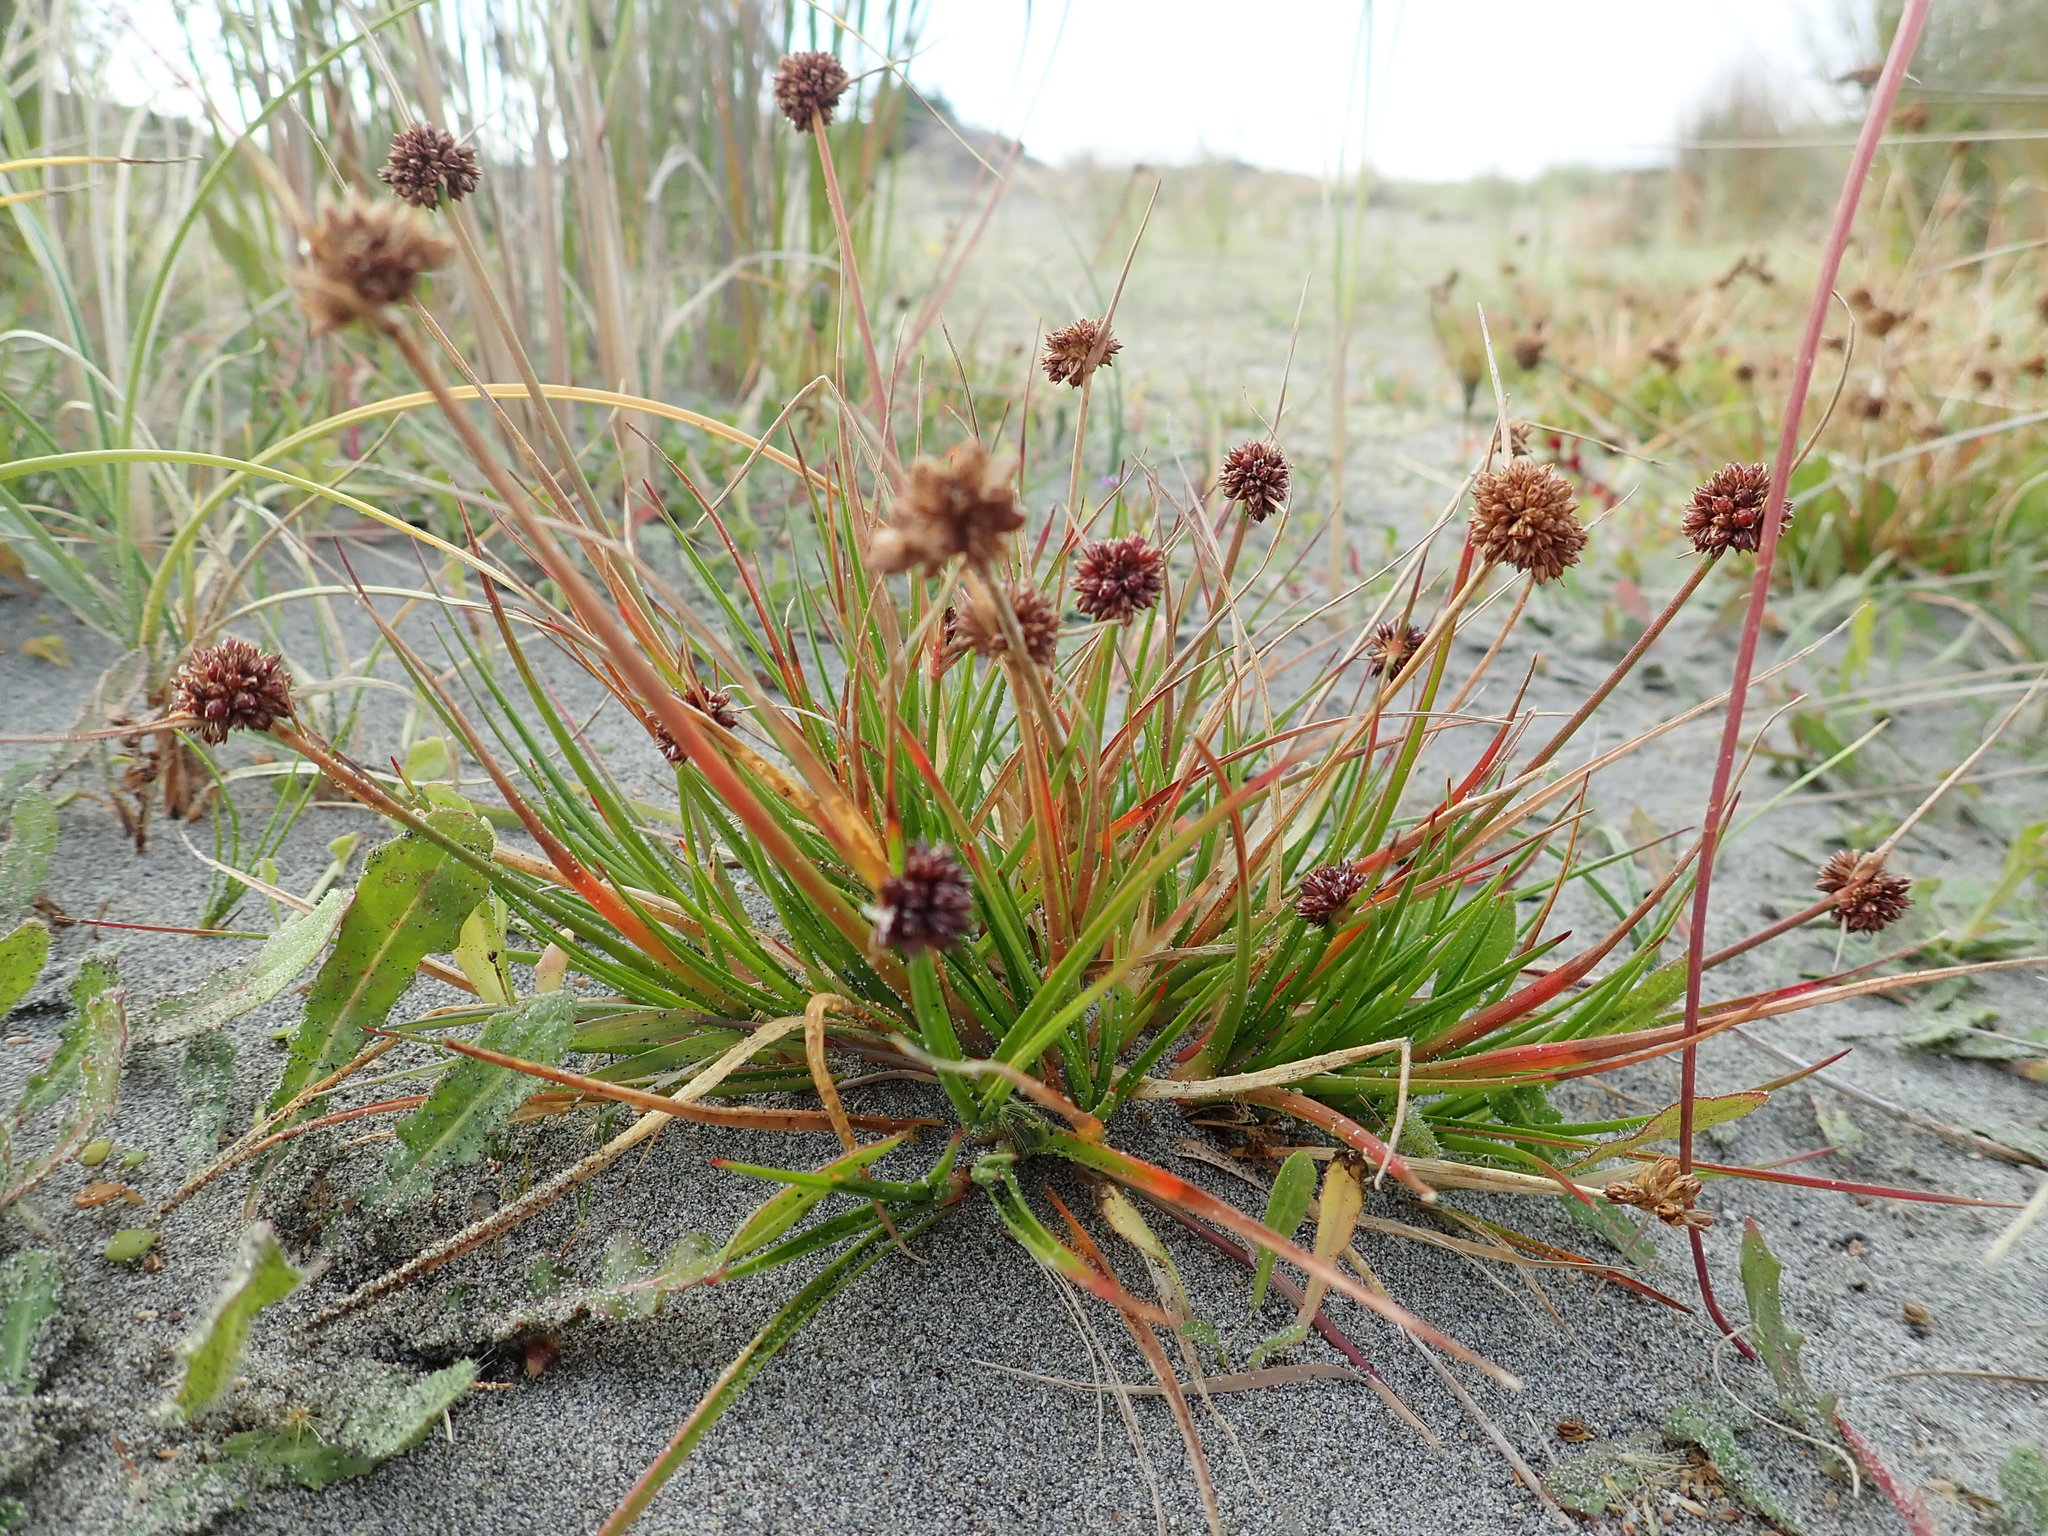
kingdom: Plantae
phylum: Tracheophyta
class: Liliopsida
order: Poales
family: Juncaceae
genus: Juncus
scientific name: Juncus caespiticius
